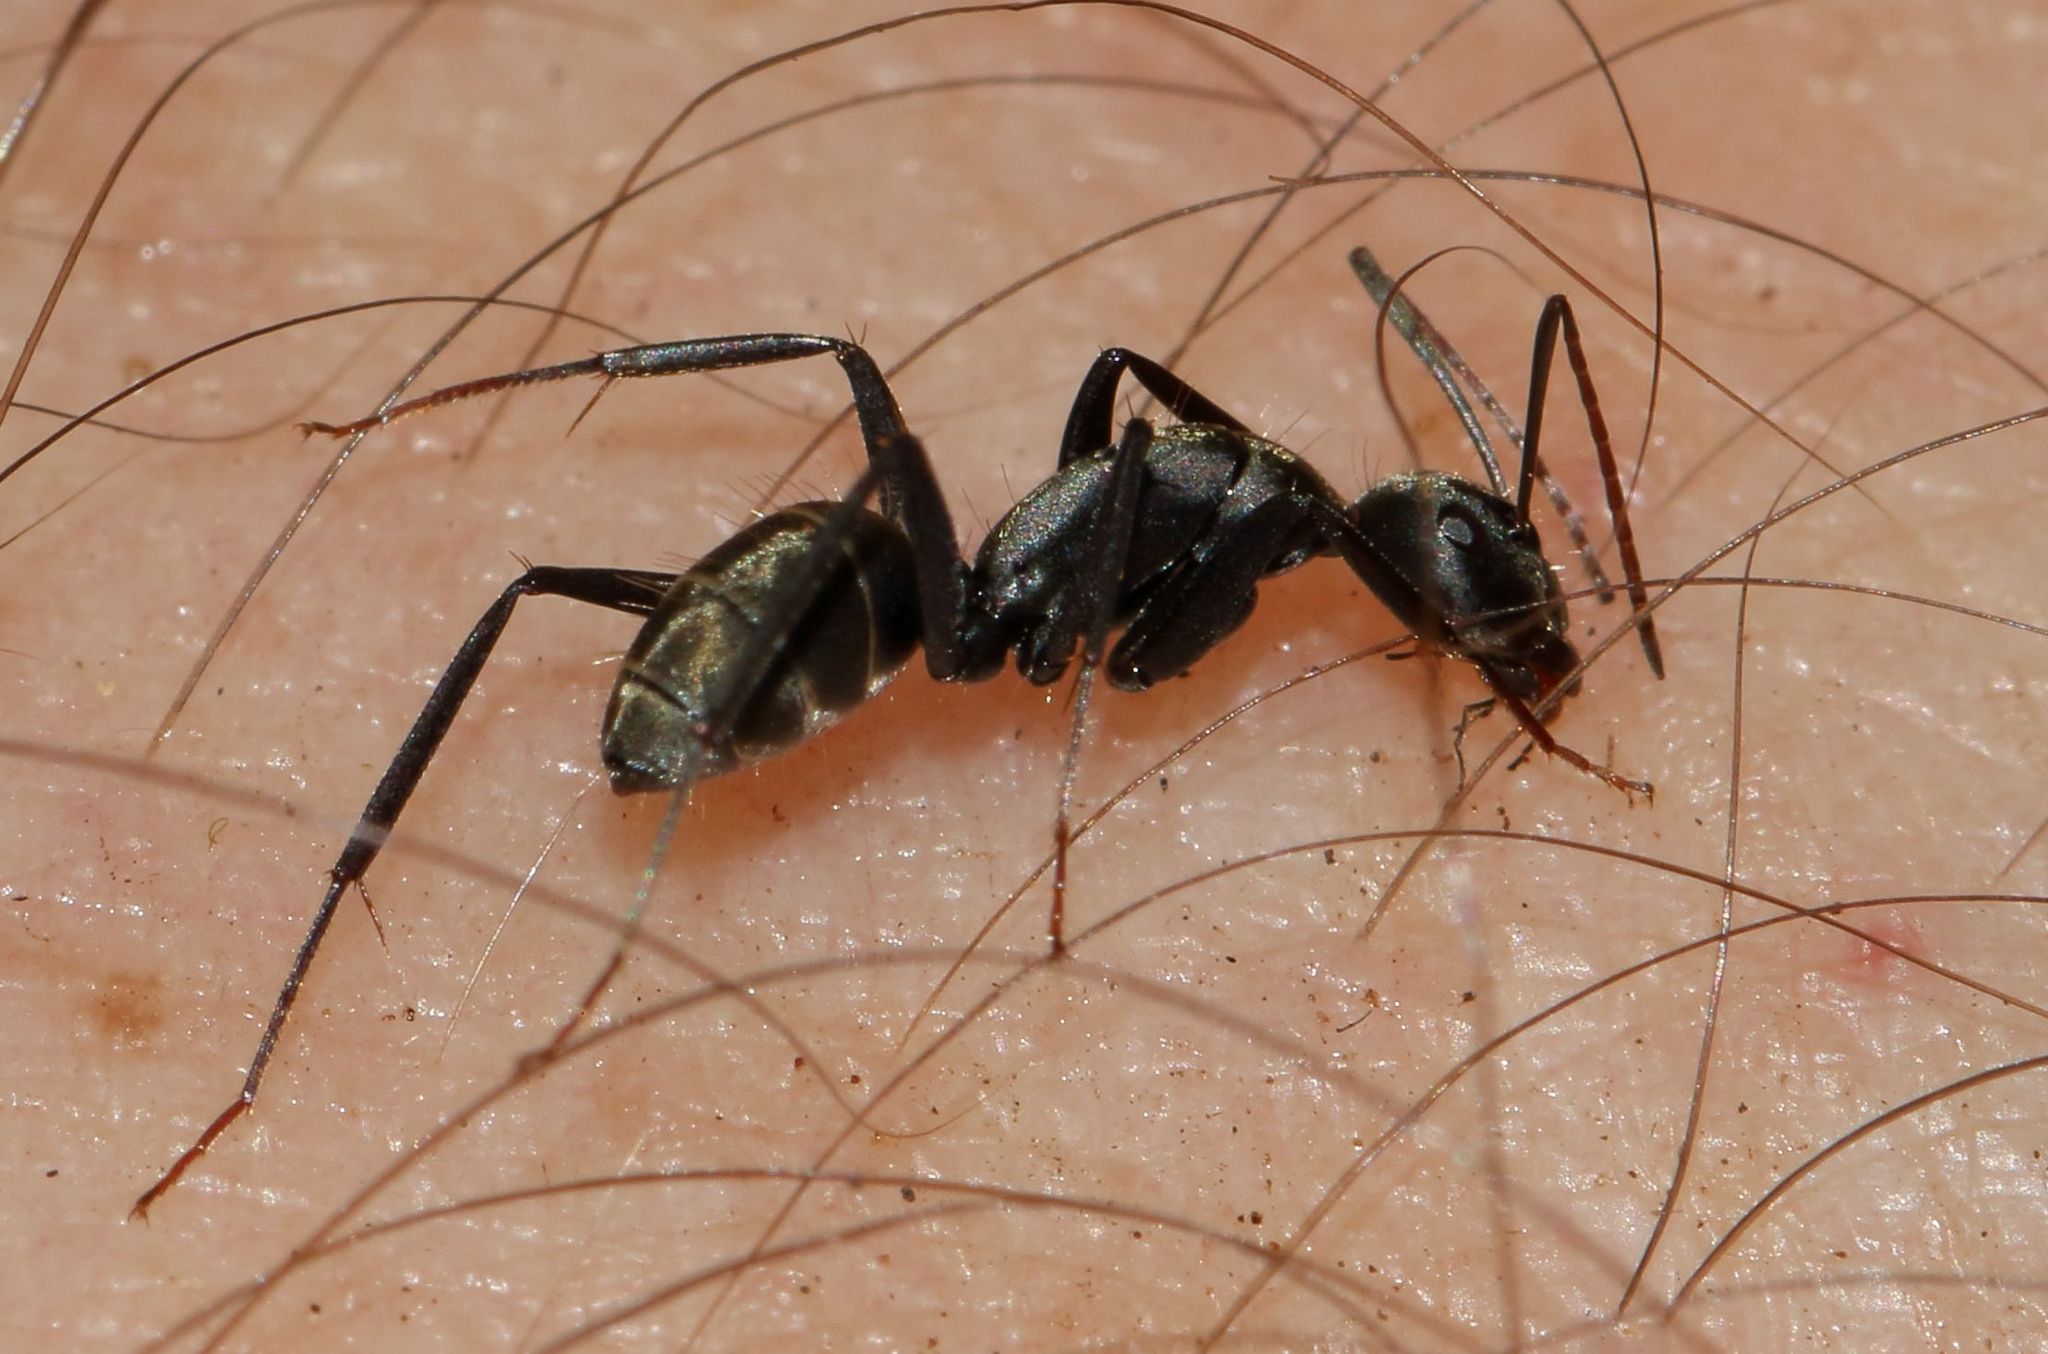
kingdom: Animalia
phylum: Arthropoda
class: Insecta
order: Hymenoptera
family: Formicidae
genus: Camponotus
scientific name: Camponotus cinctellus
